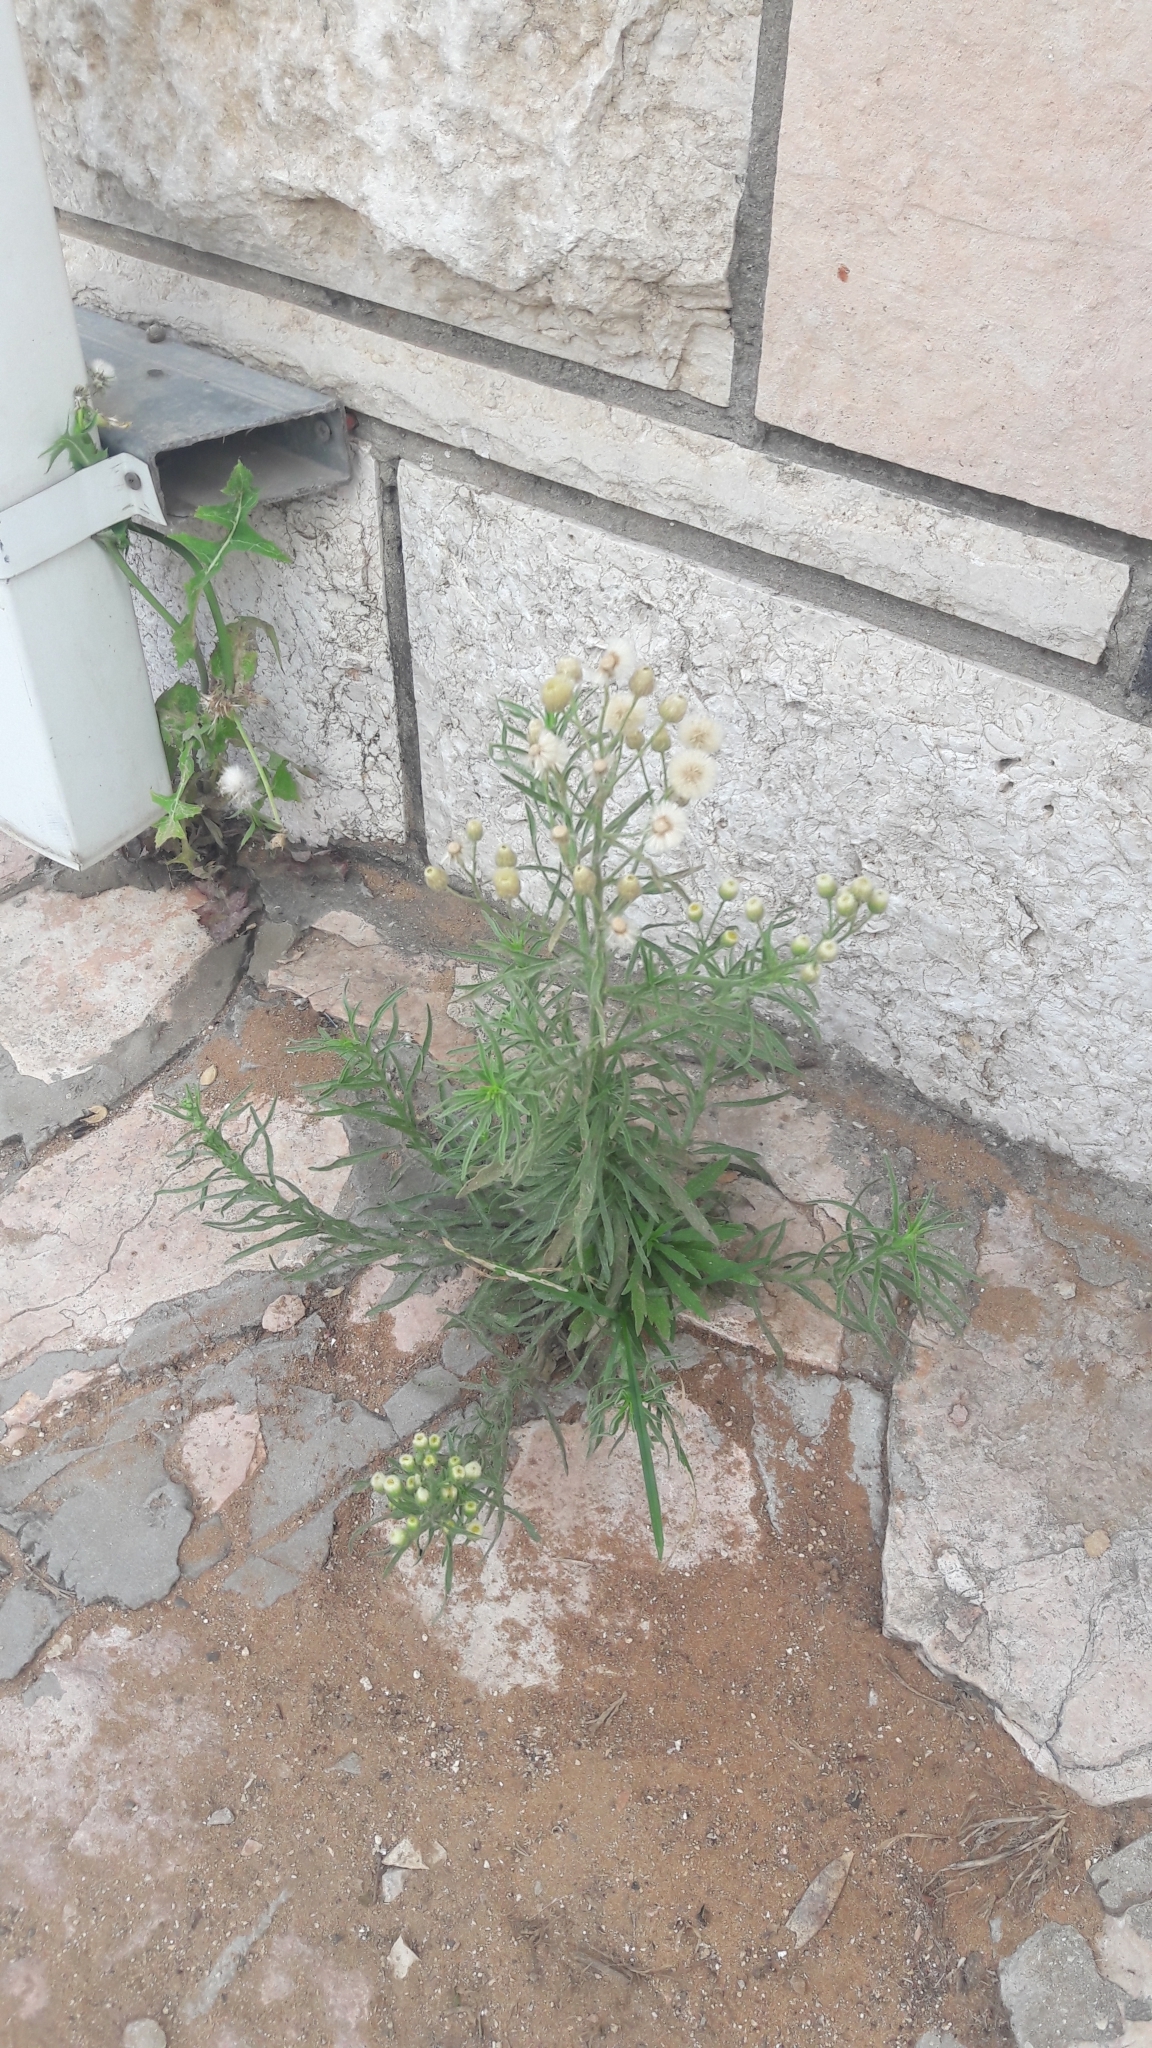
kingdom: Plantae
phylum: Tracheophyta
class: Magnoliopsida
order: Asterales
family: Asteraceae
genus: Erigeron
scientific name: Erigeron bonariensis
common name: Argentine fleabane
